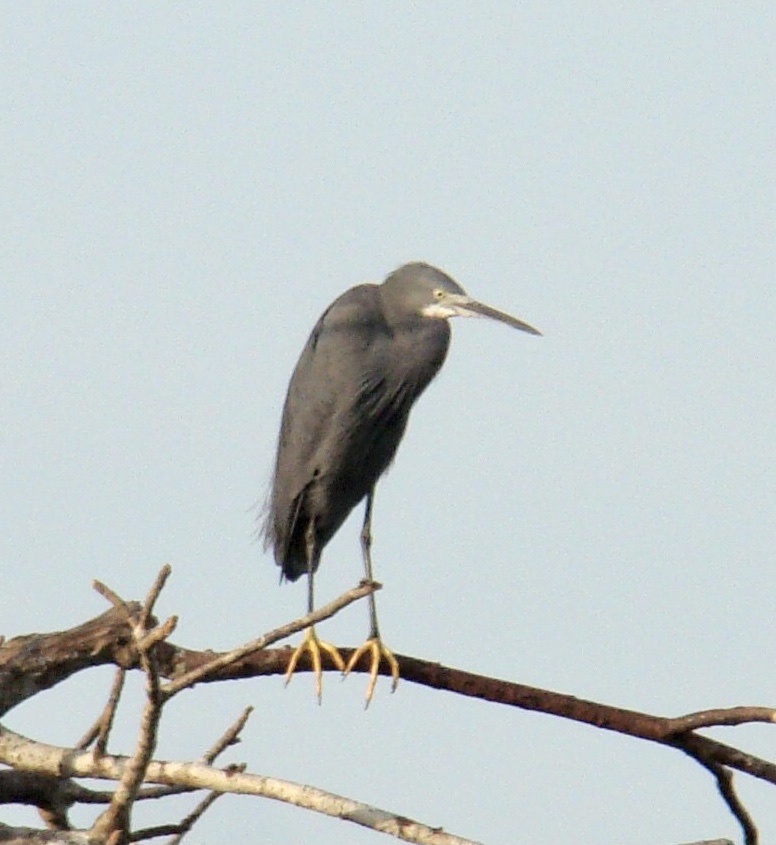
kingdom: Animalia
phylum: Chordata
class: Aves
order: Pelecaniformes
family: Ardeidae
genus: Egretta
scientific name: Egretta dimorpha
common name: Dimorphic egret
